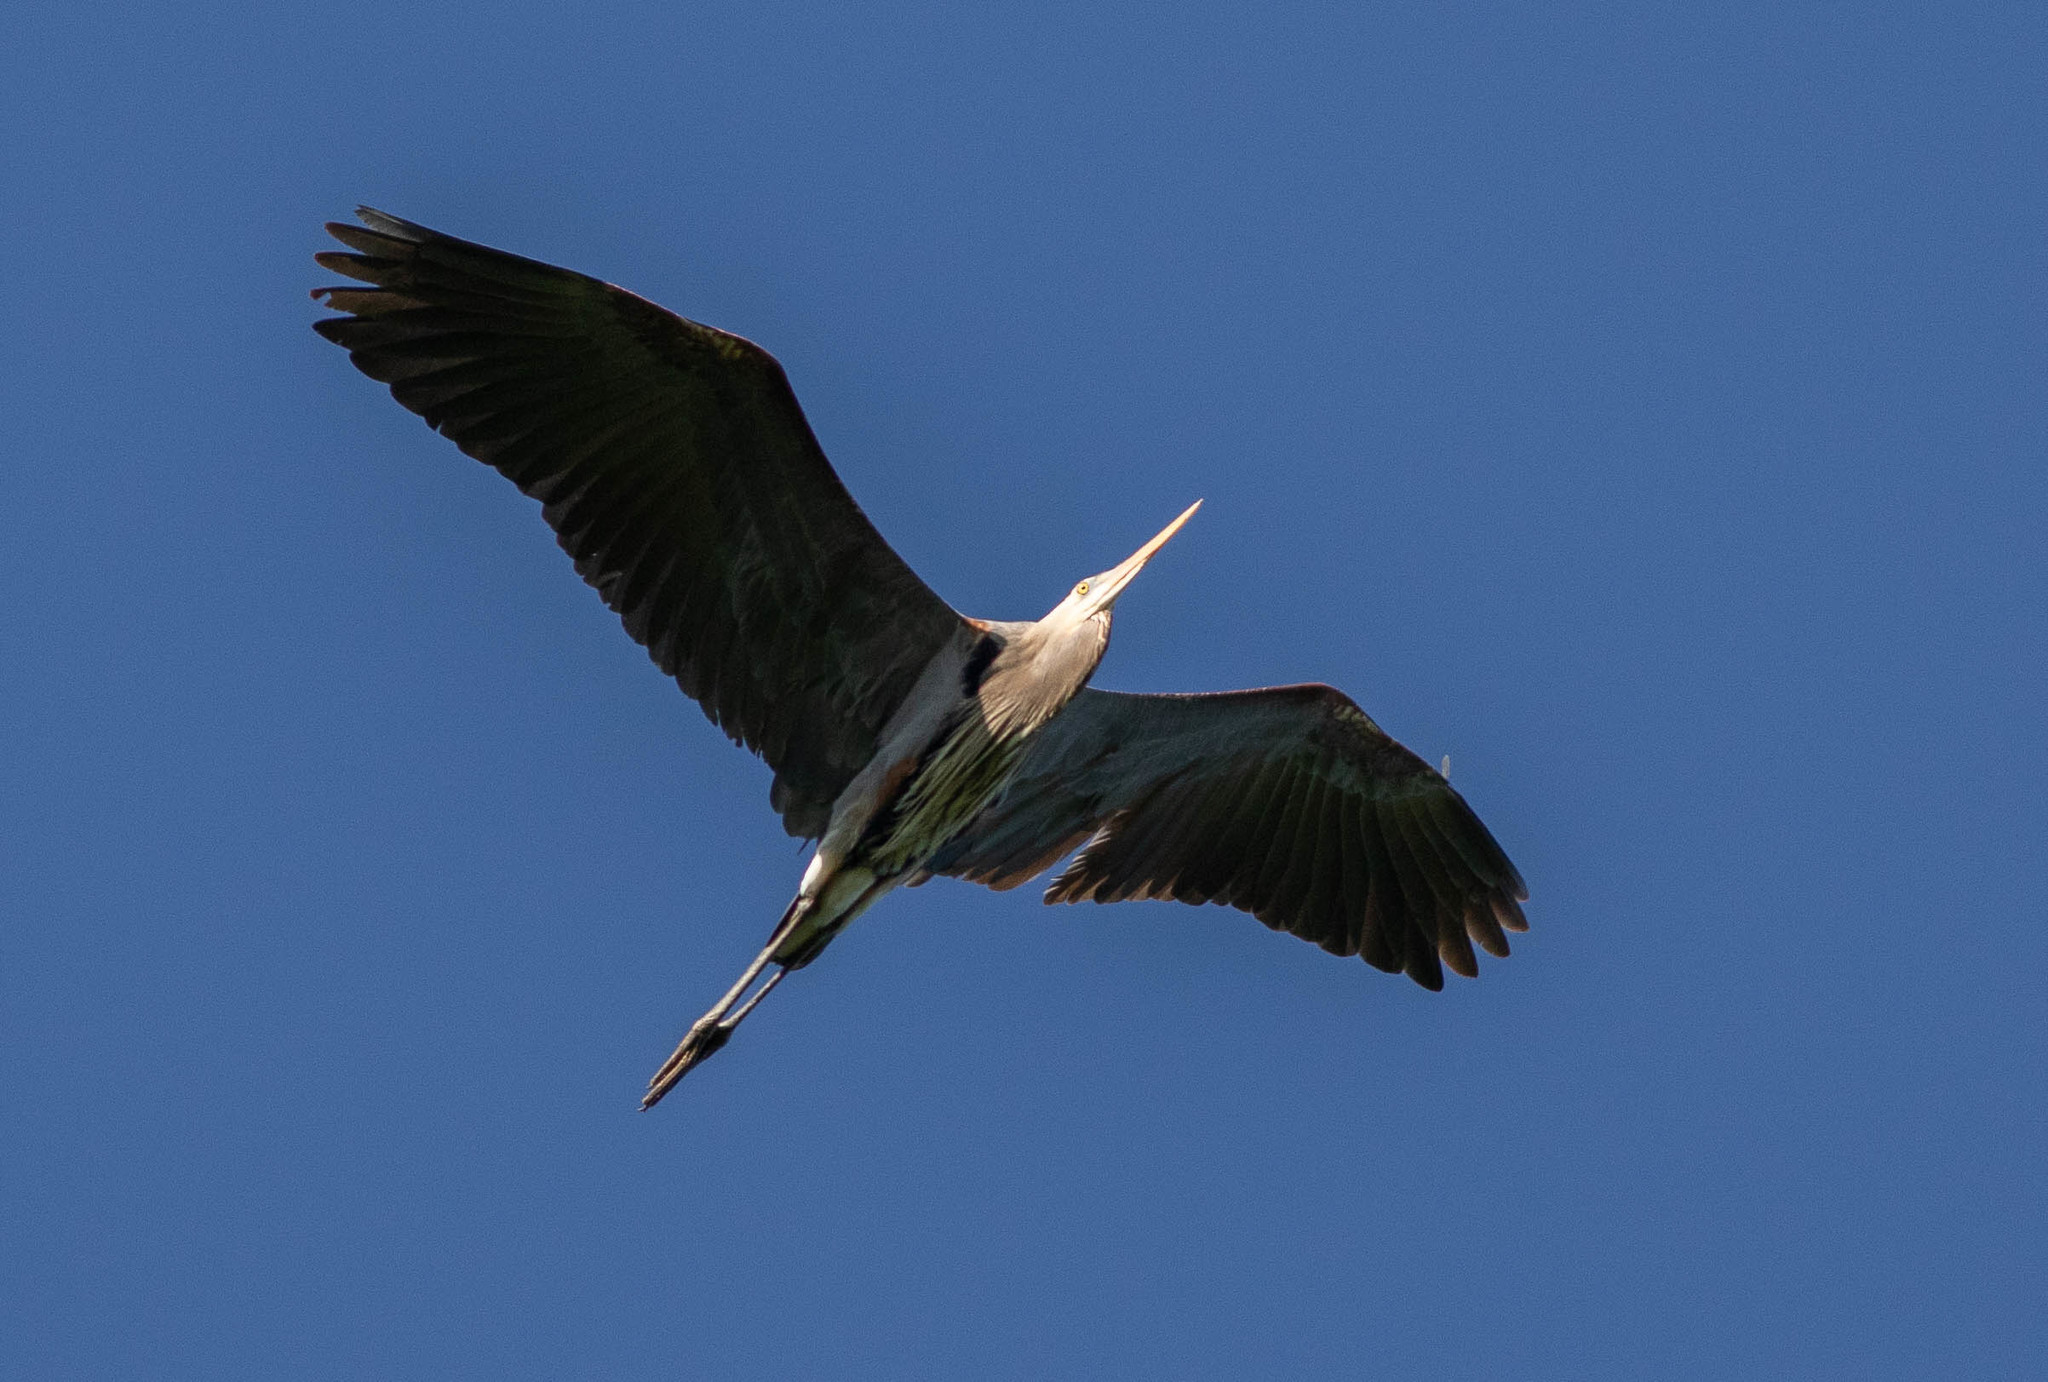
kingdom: Animalia
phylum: Chordata
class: Aves
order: Pelecaniformes
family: Ardeidae
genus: Ardea
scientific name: Ardea herodias
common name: Great blue heron
